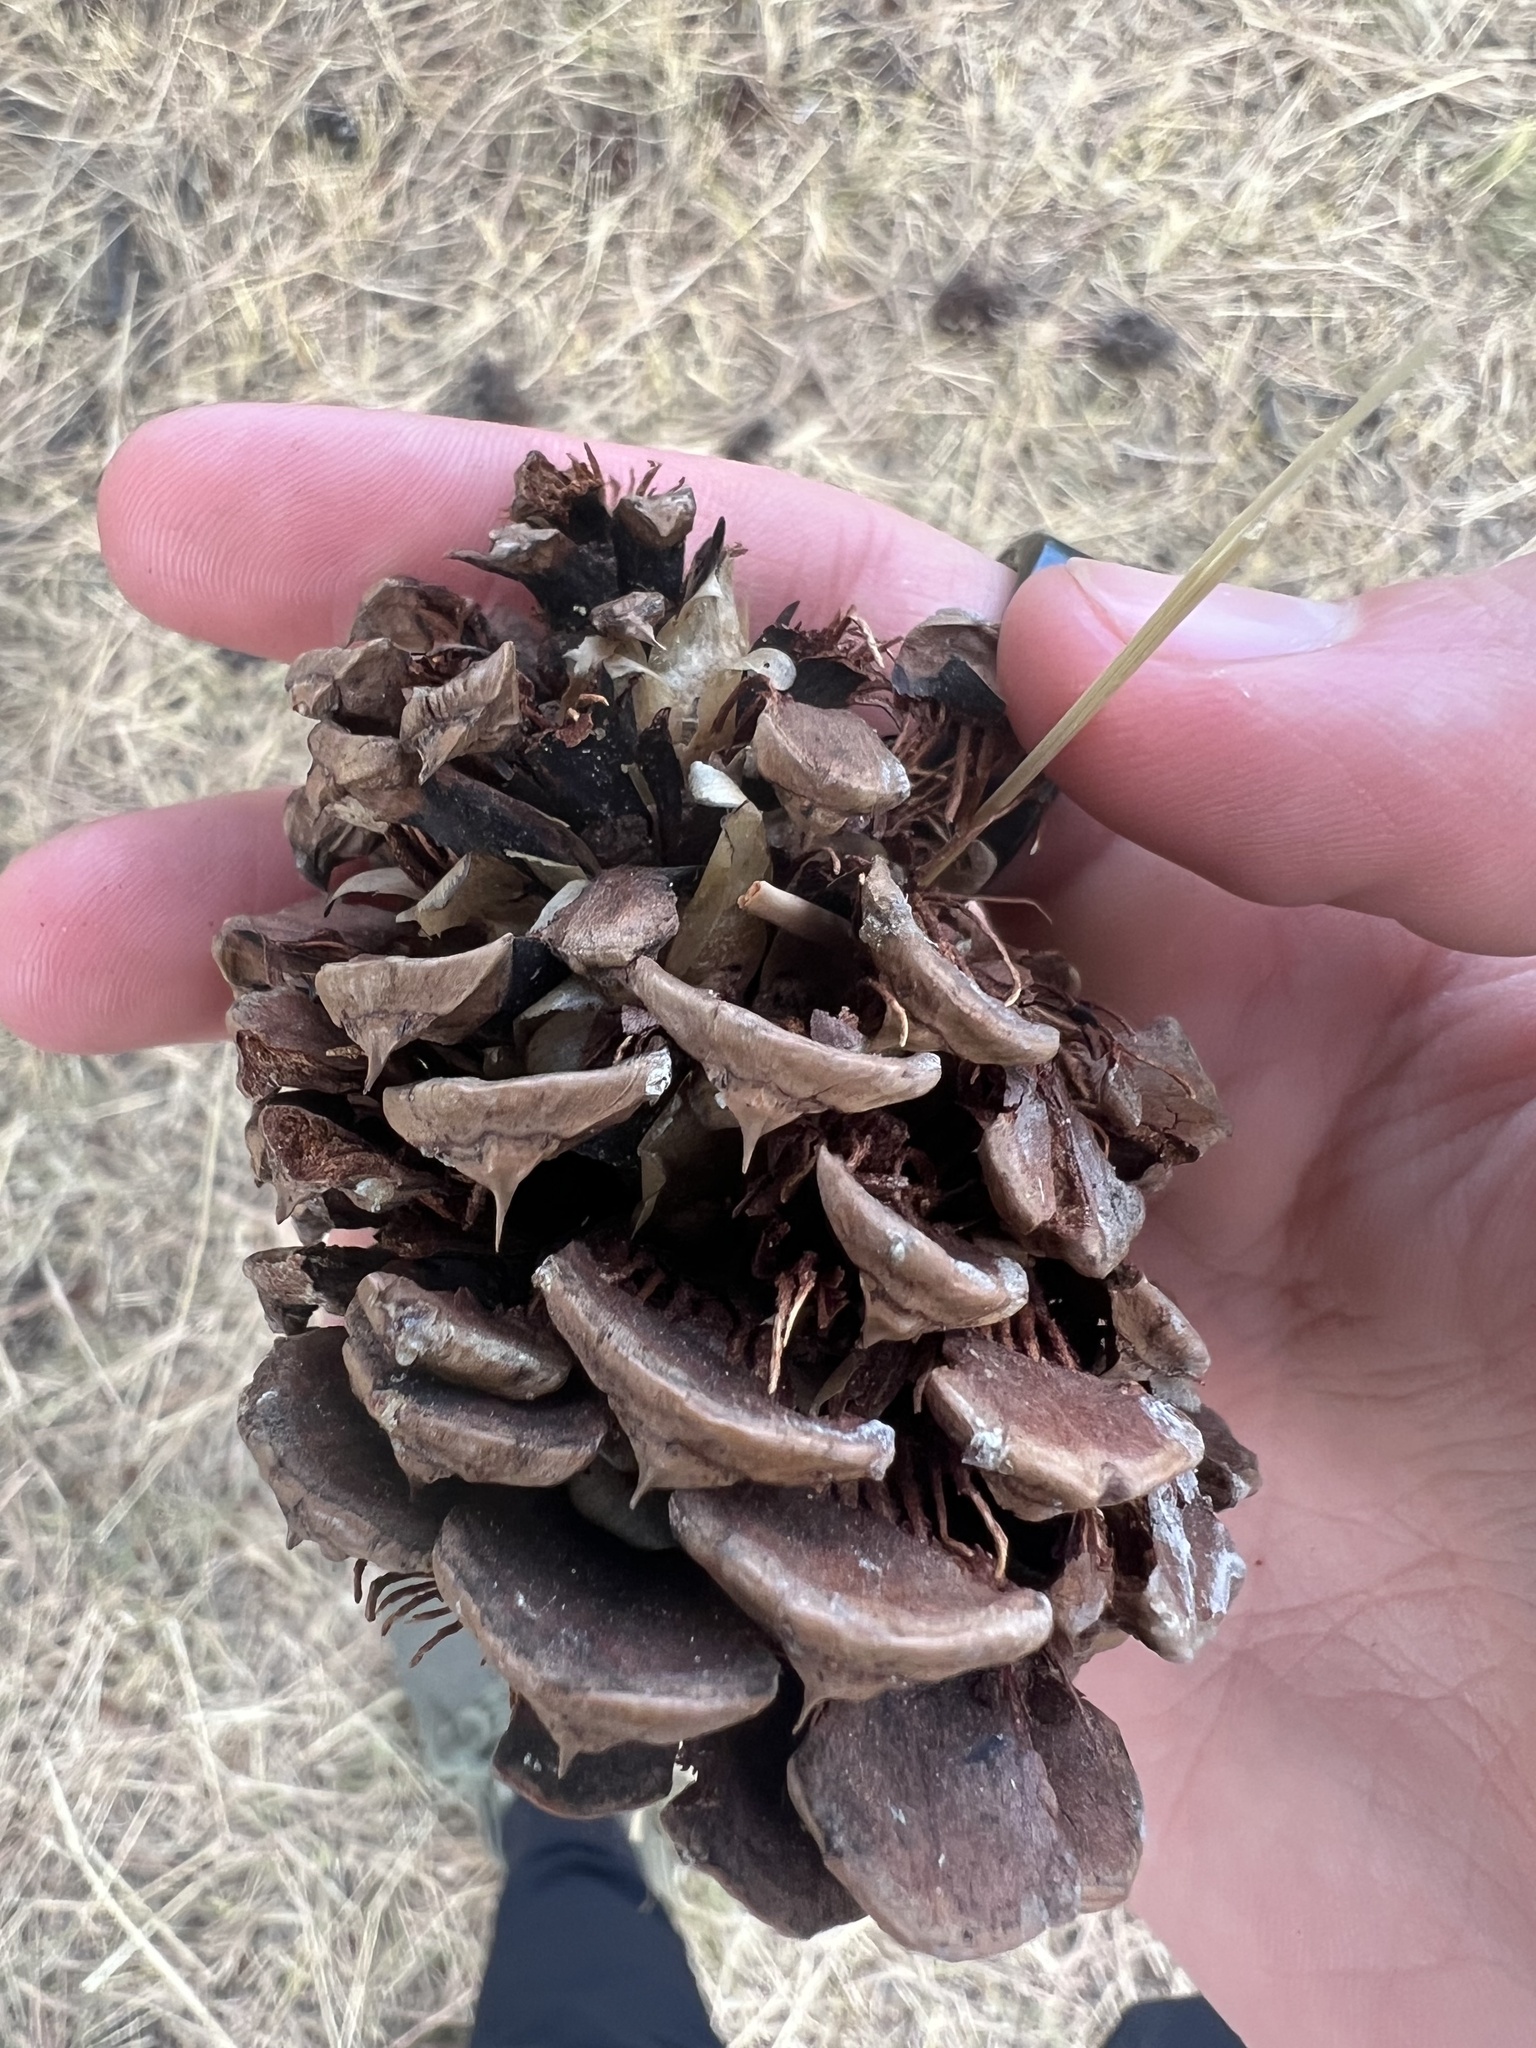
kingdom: Plantae
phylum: Tracheophyta
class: Pinopsida
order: Pinales
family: Pinaceae
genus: Pinus
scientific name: Pinus ponderosa
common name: Western yellow-pine
